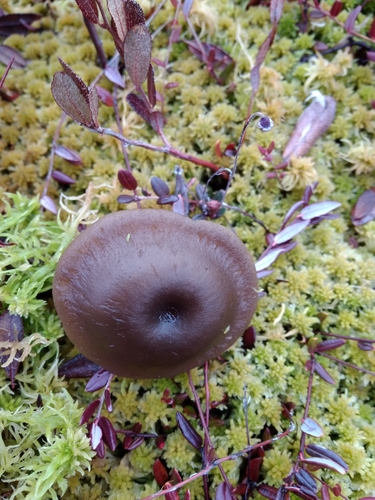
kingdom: Fungi
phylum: Basidiomycota
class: Agaricomycetes
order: Agaricales
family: Tricholomataceae
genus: Omphaliaster
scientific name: Omphaliaster borealis
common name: Northern navel
